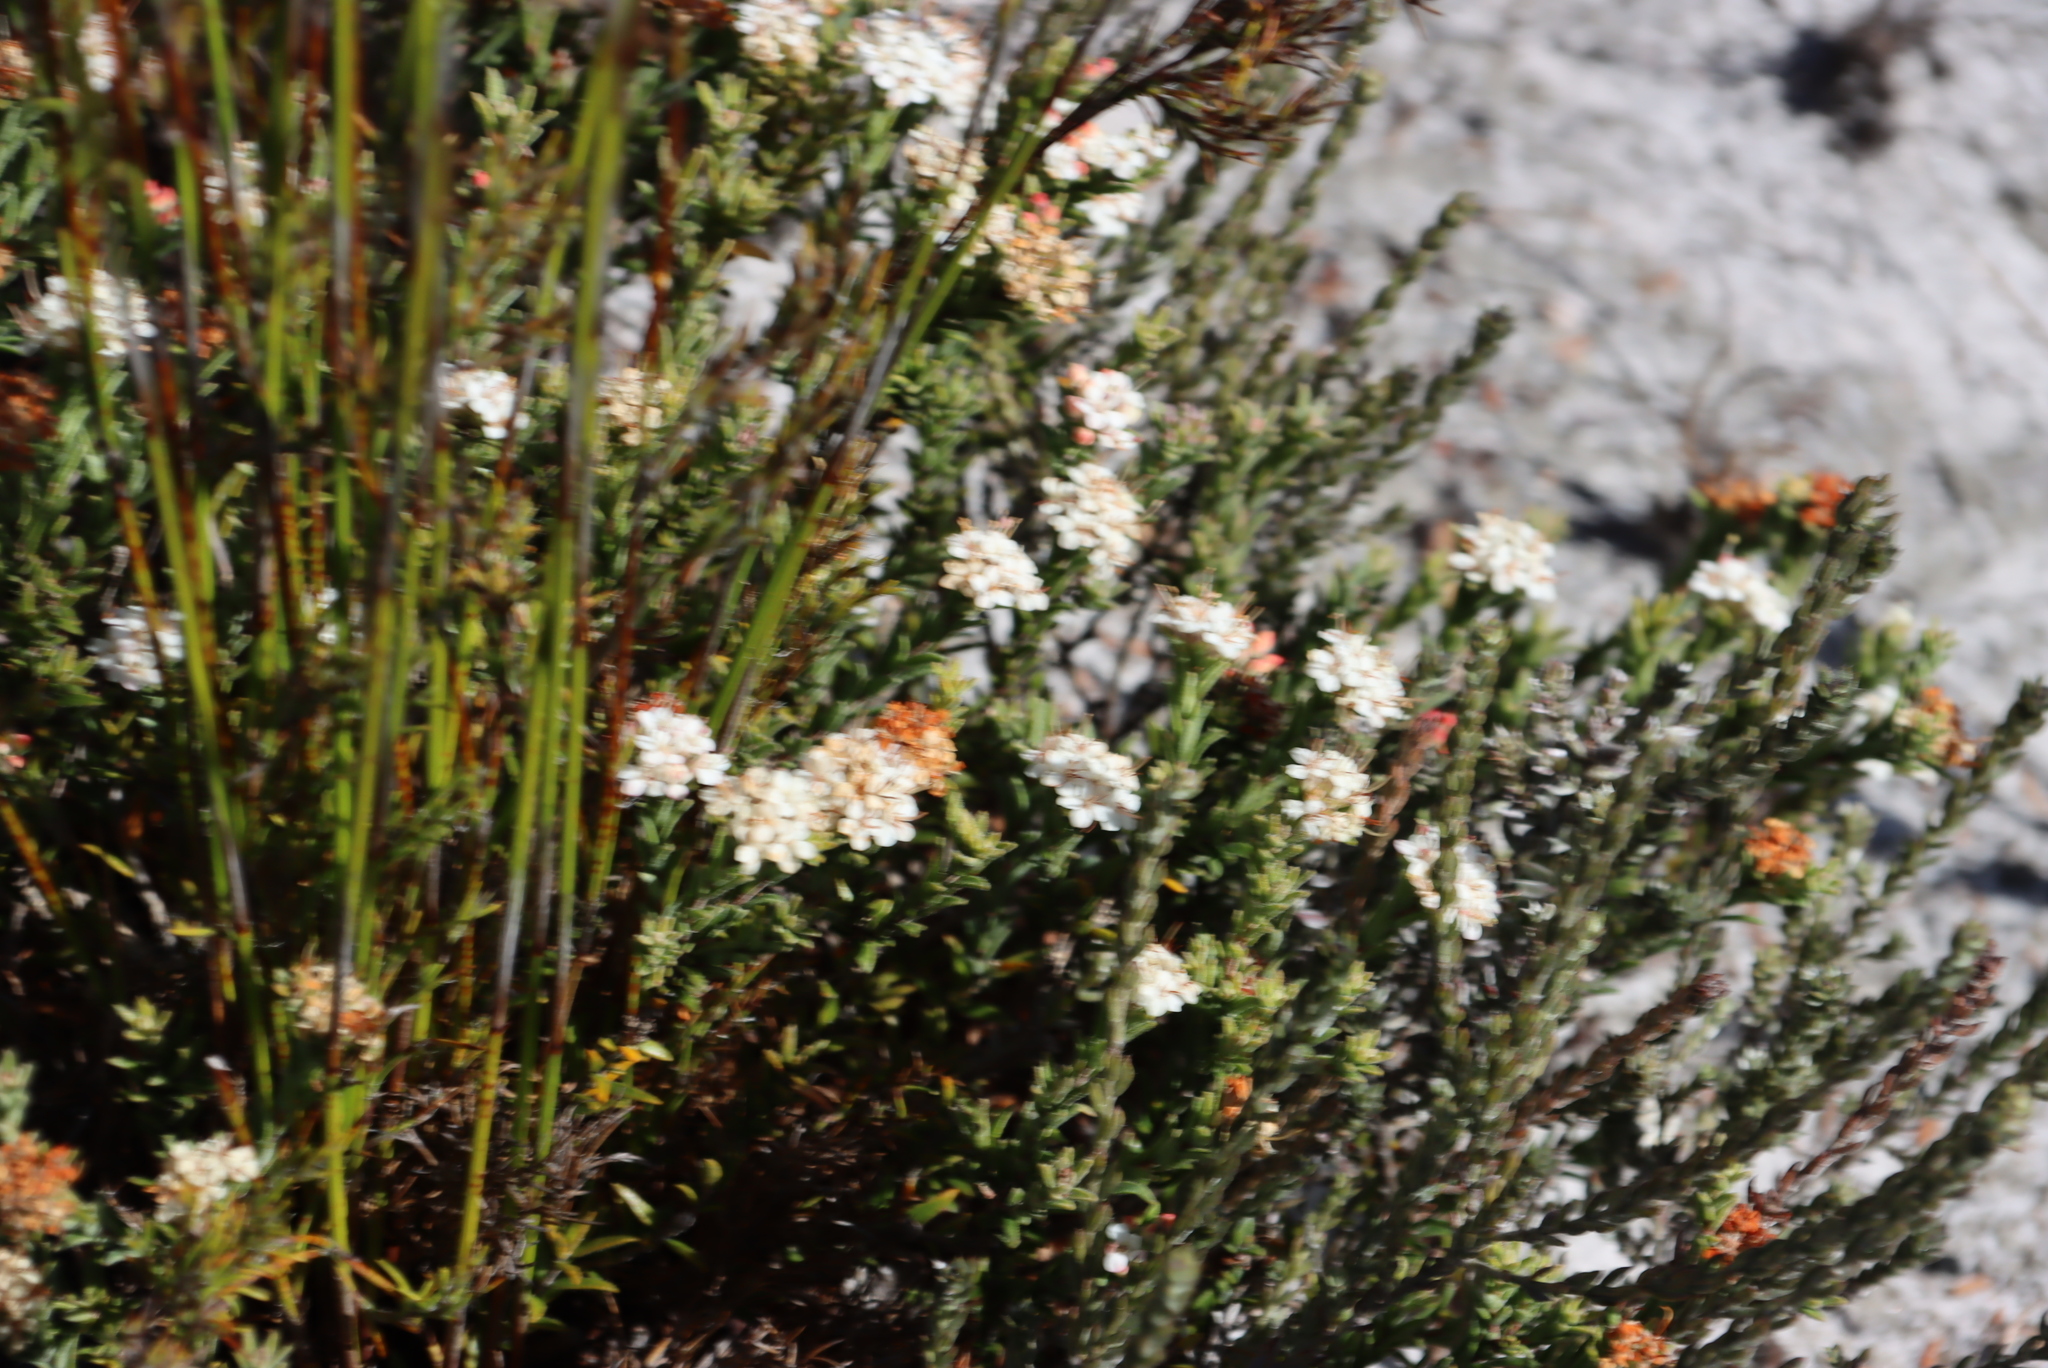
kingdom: Plantae
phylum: Tracheophyta
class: Magnoliopsida
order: Sapindales
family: Rutaceae
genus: Macrostylis
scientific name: Macrostylis villosa
